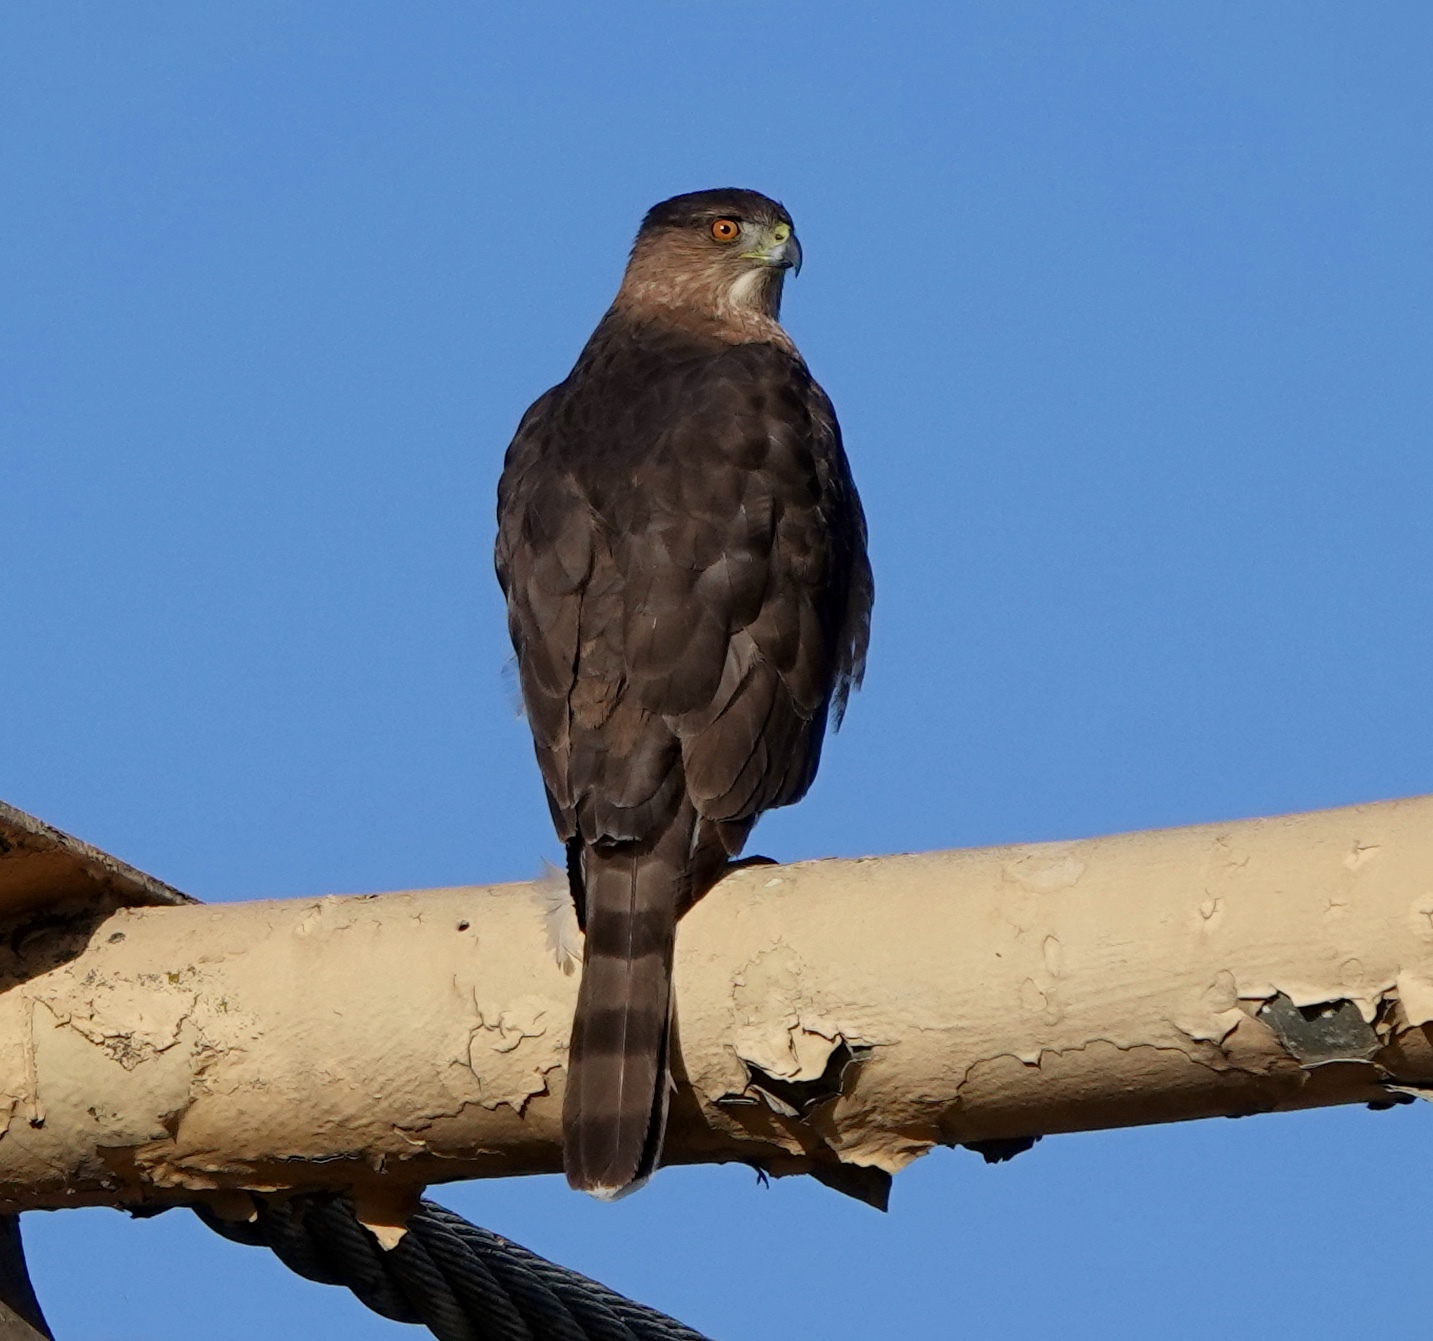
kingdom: Animalia
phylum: Chordata
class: Aves
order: Accipitriformes
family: Accipitridae
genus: Accipiter
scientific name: Accipiter cooperii
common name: Cooper's hawk
